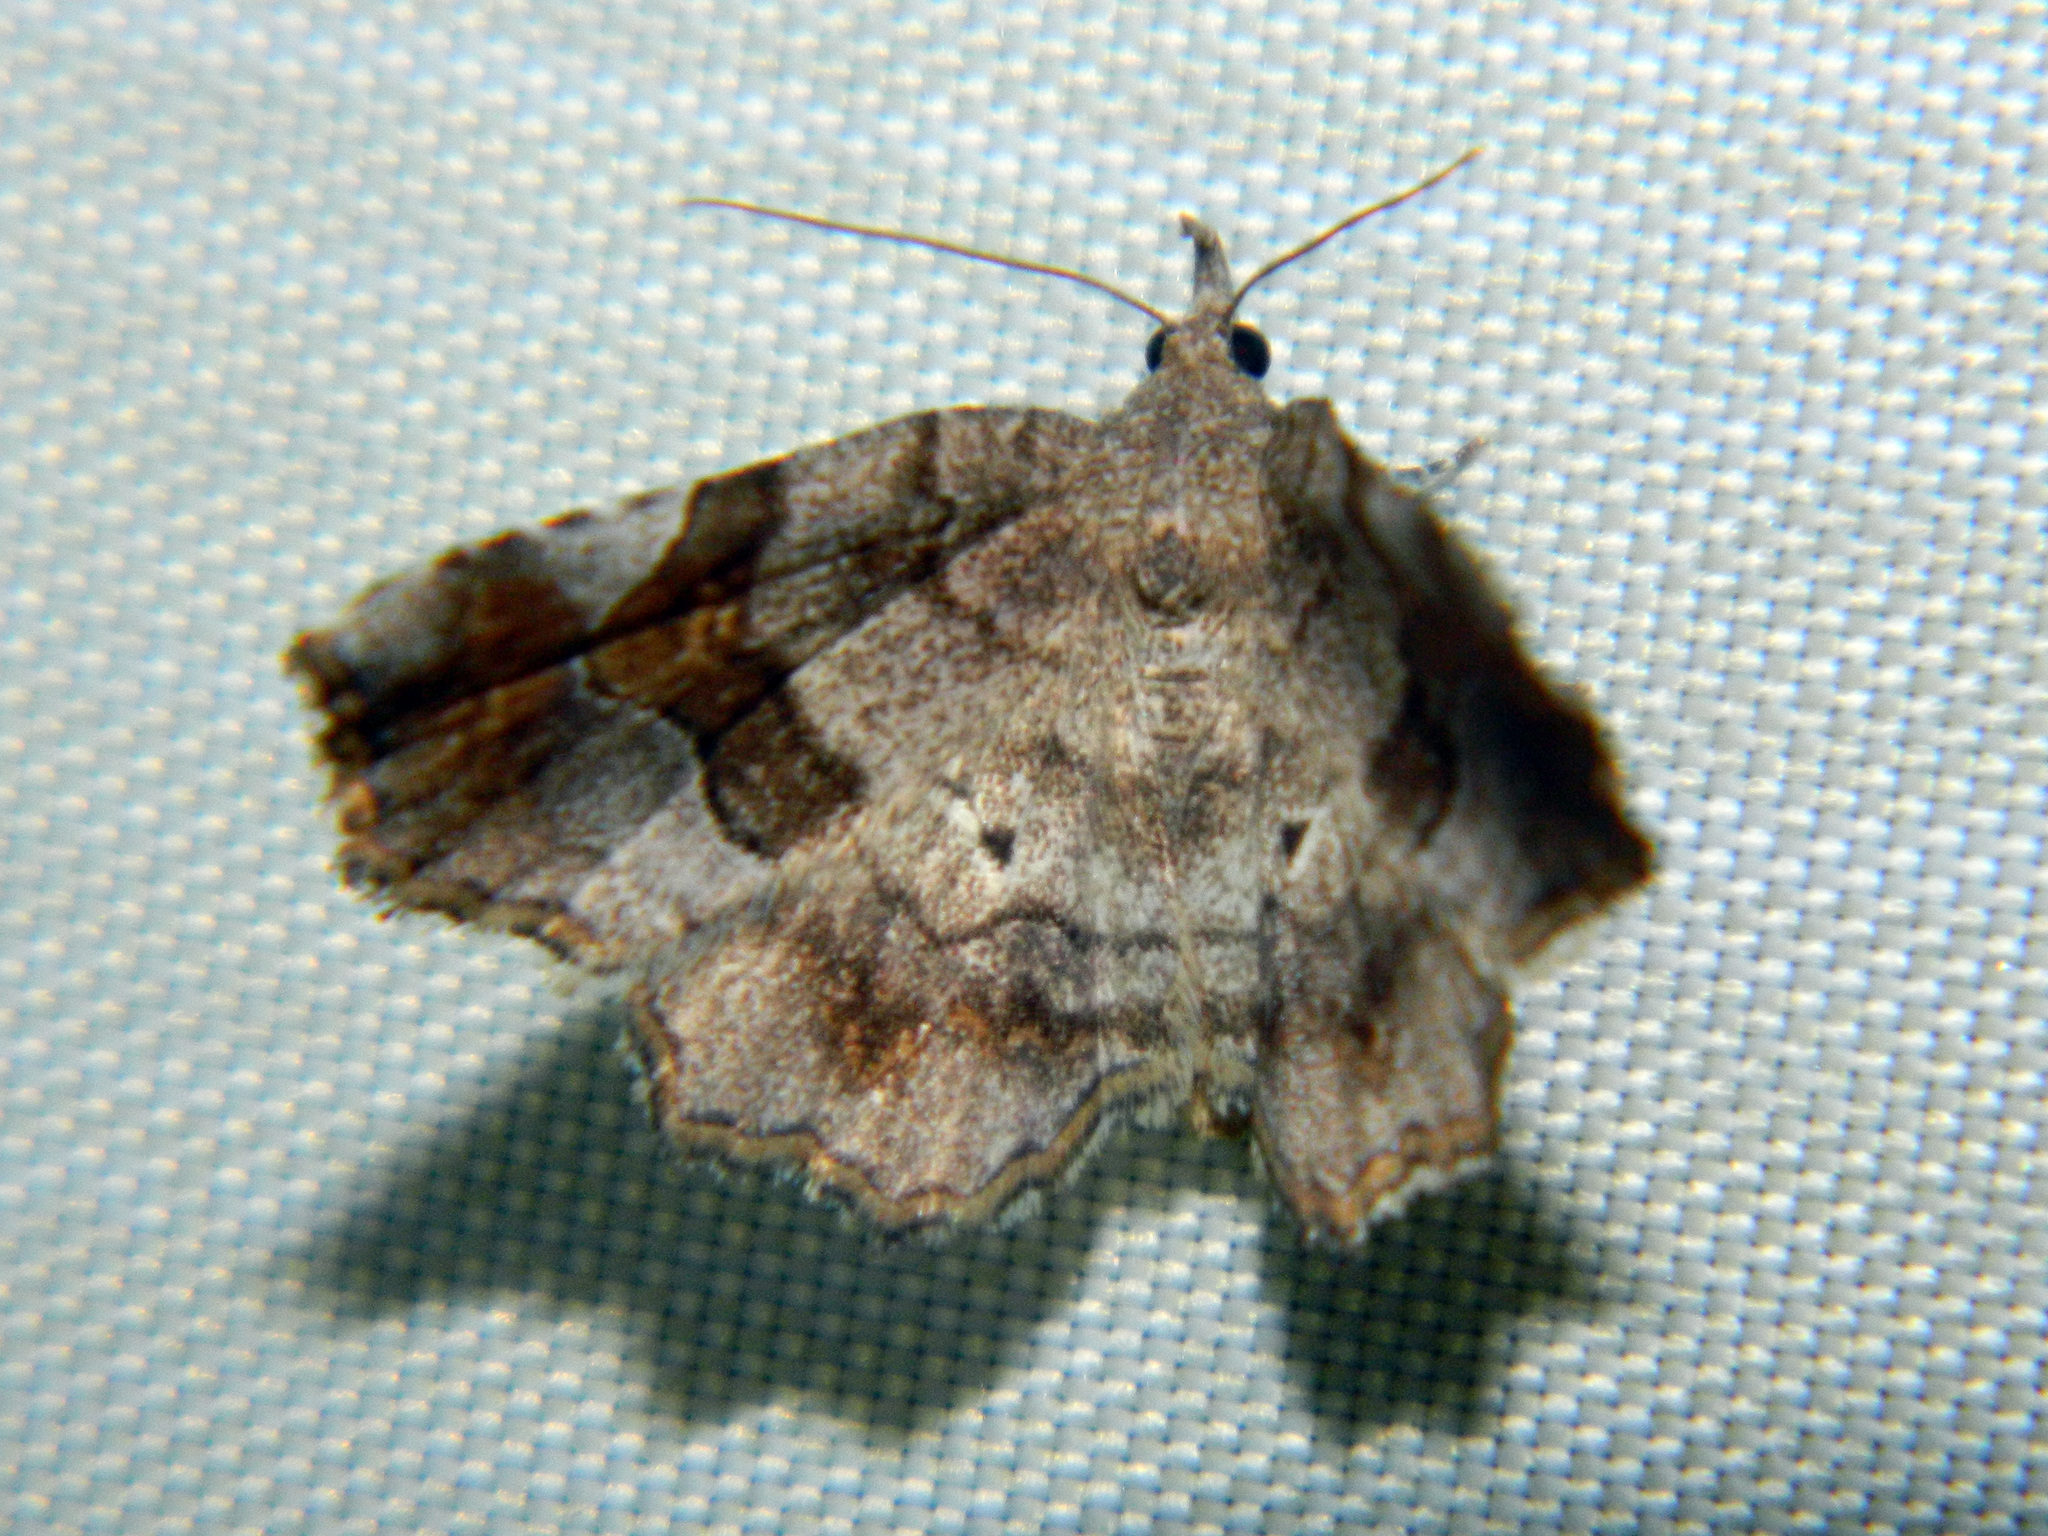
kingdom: Animalia
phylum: Arthropoda
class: Insecta
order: Lepidoptera
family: Erebidae
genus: Pangrapta
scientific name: Pangrapta decoralis
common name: Decorated owlet
